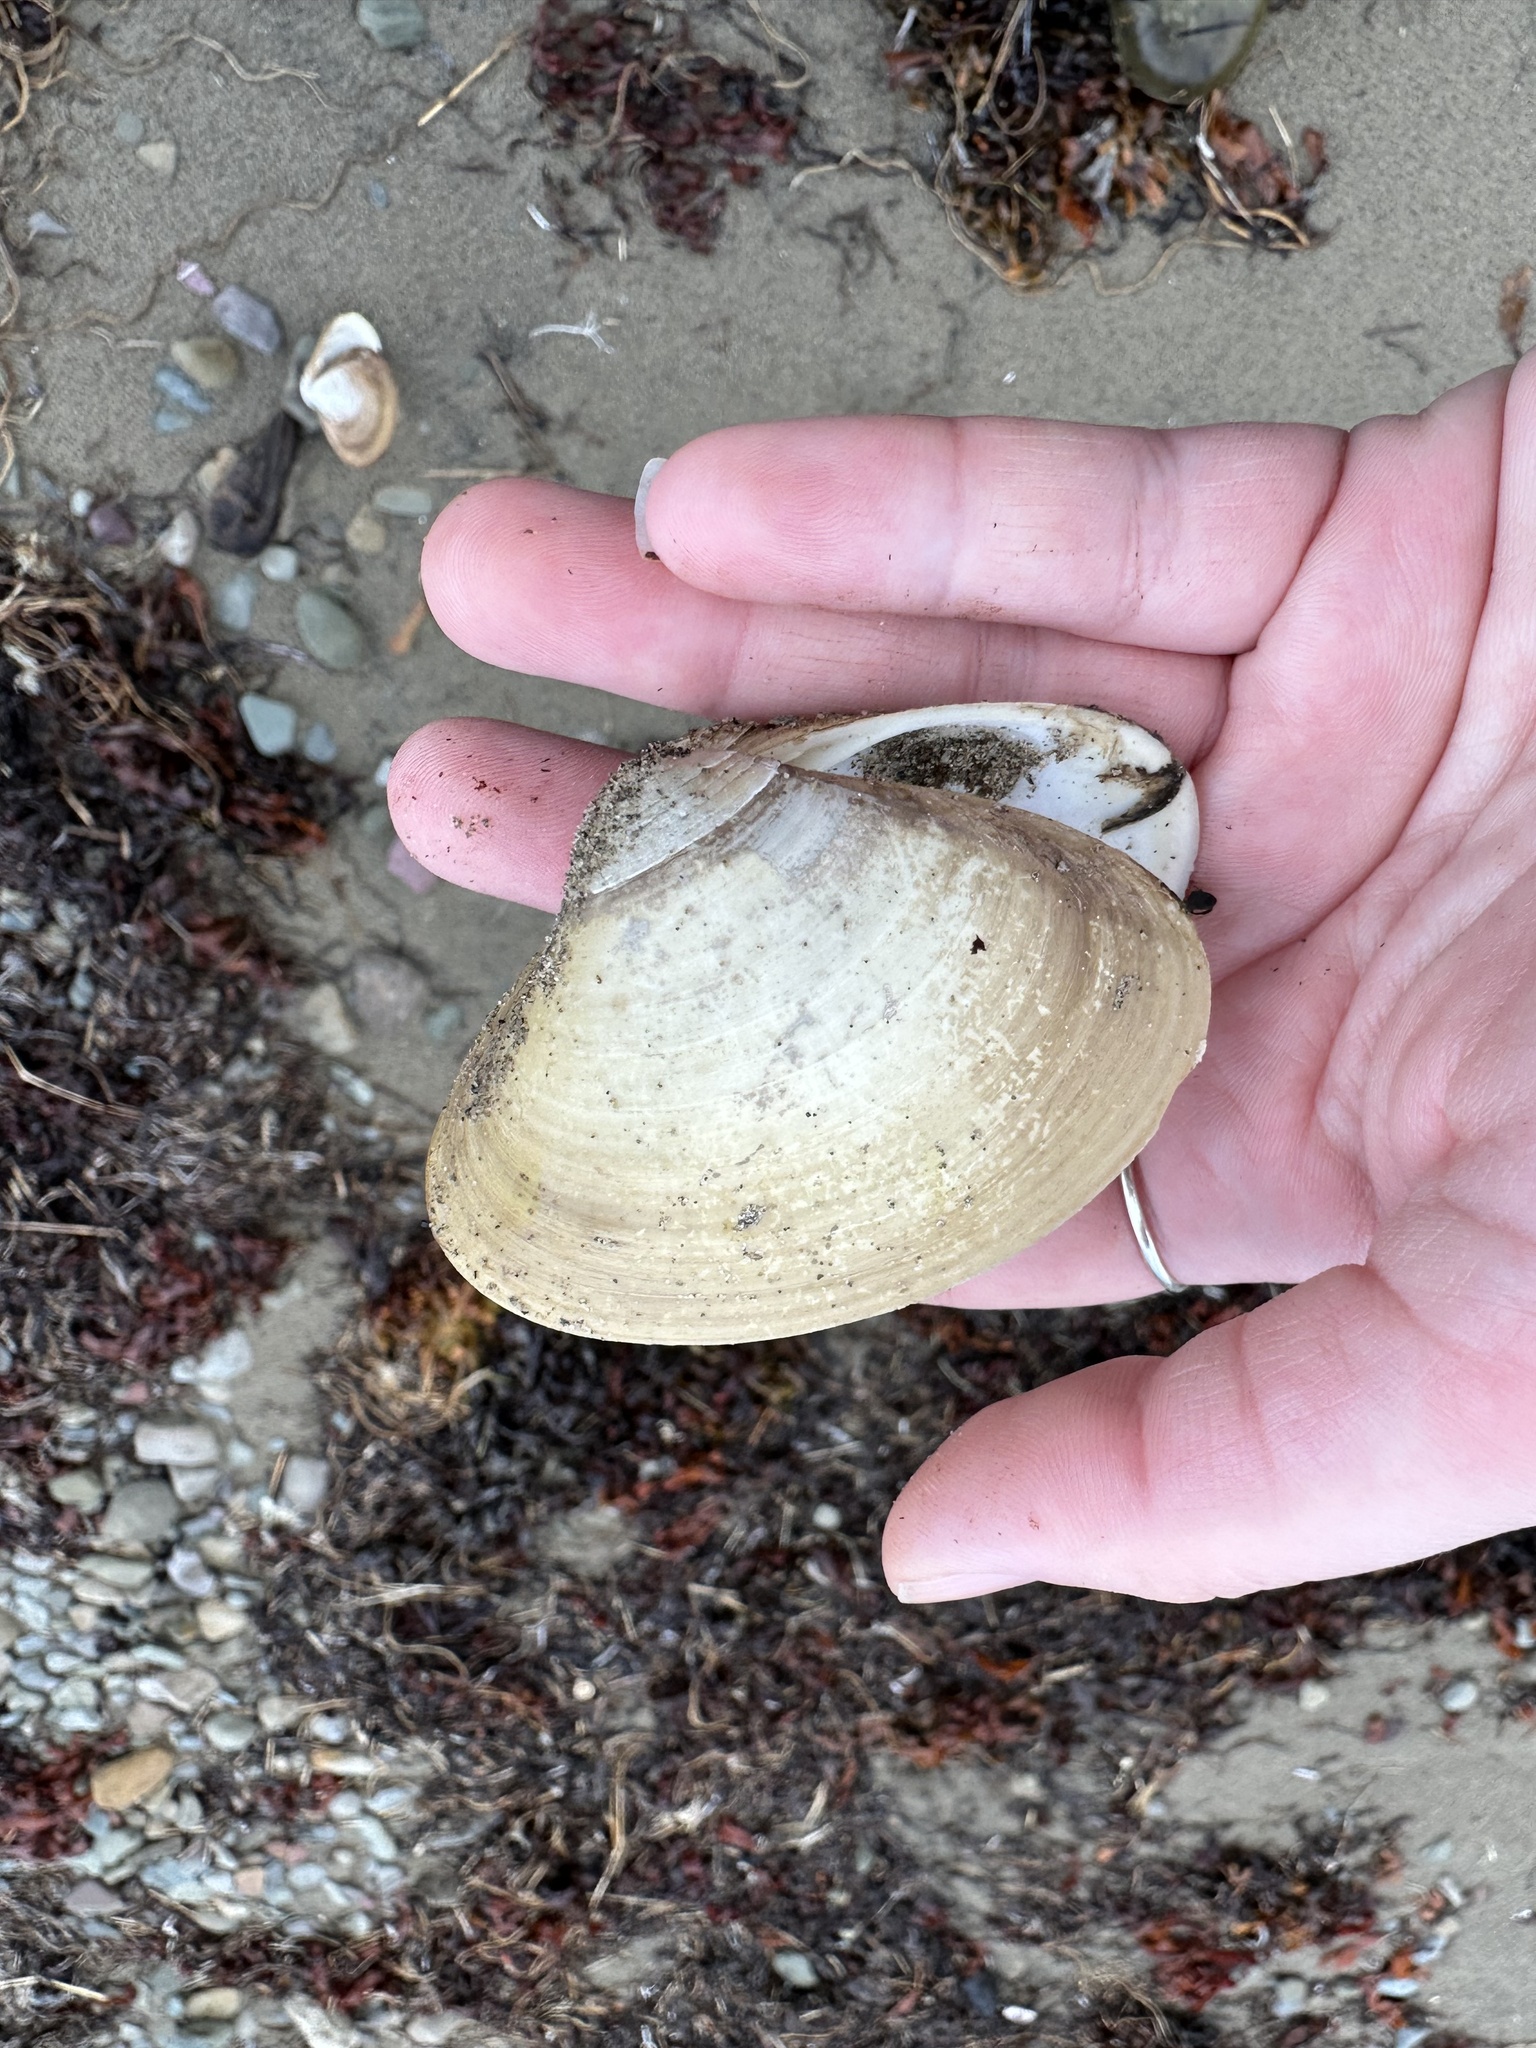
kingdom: Animalia
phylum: Mollusca
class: Bivalvia
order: Venerida
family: Mactridae
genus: Spisula
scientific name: Spisula solidissima
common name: Atlantic surf clam
